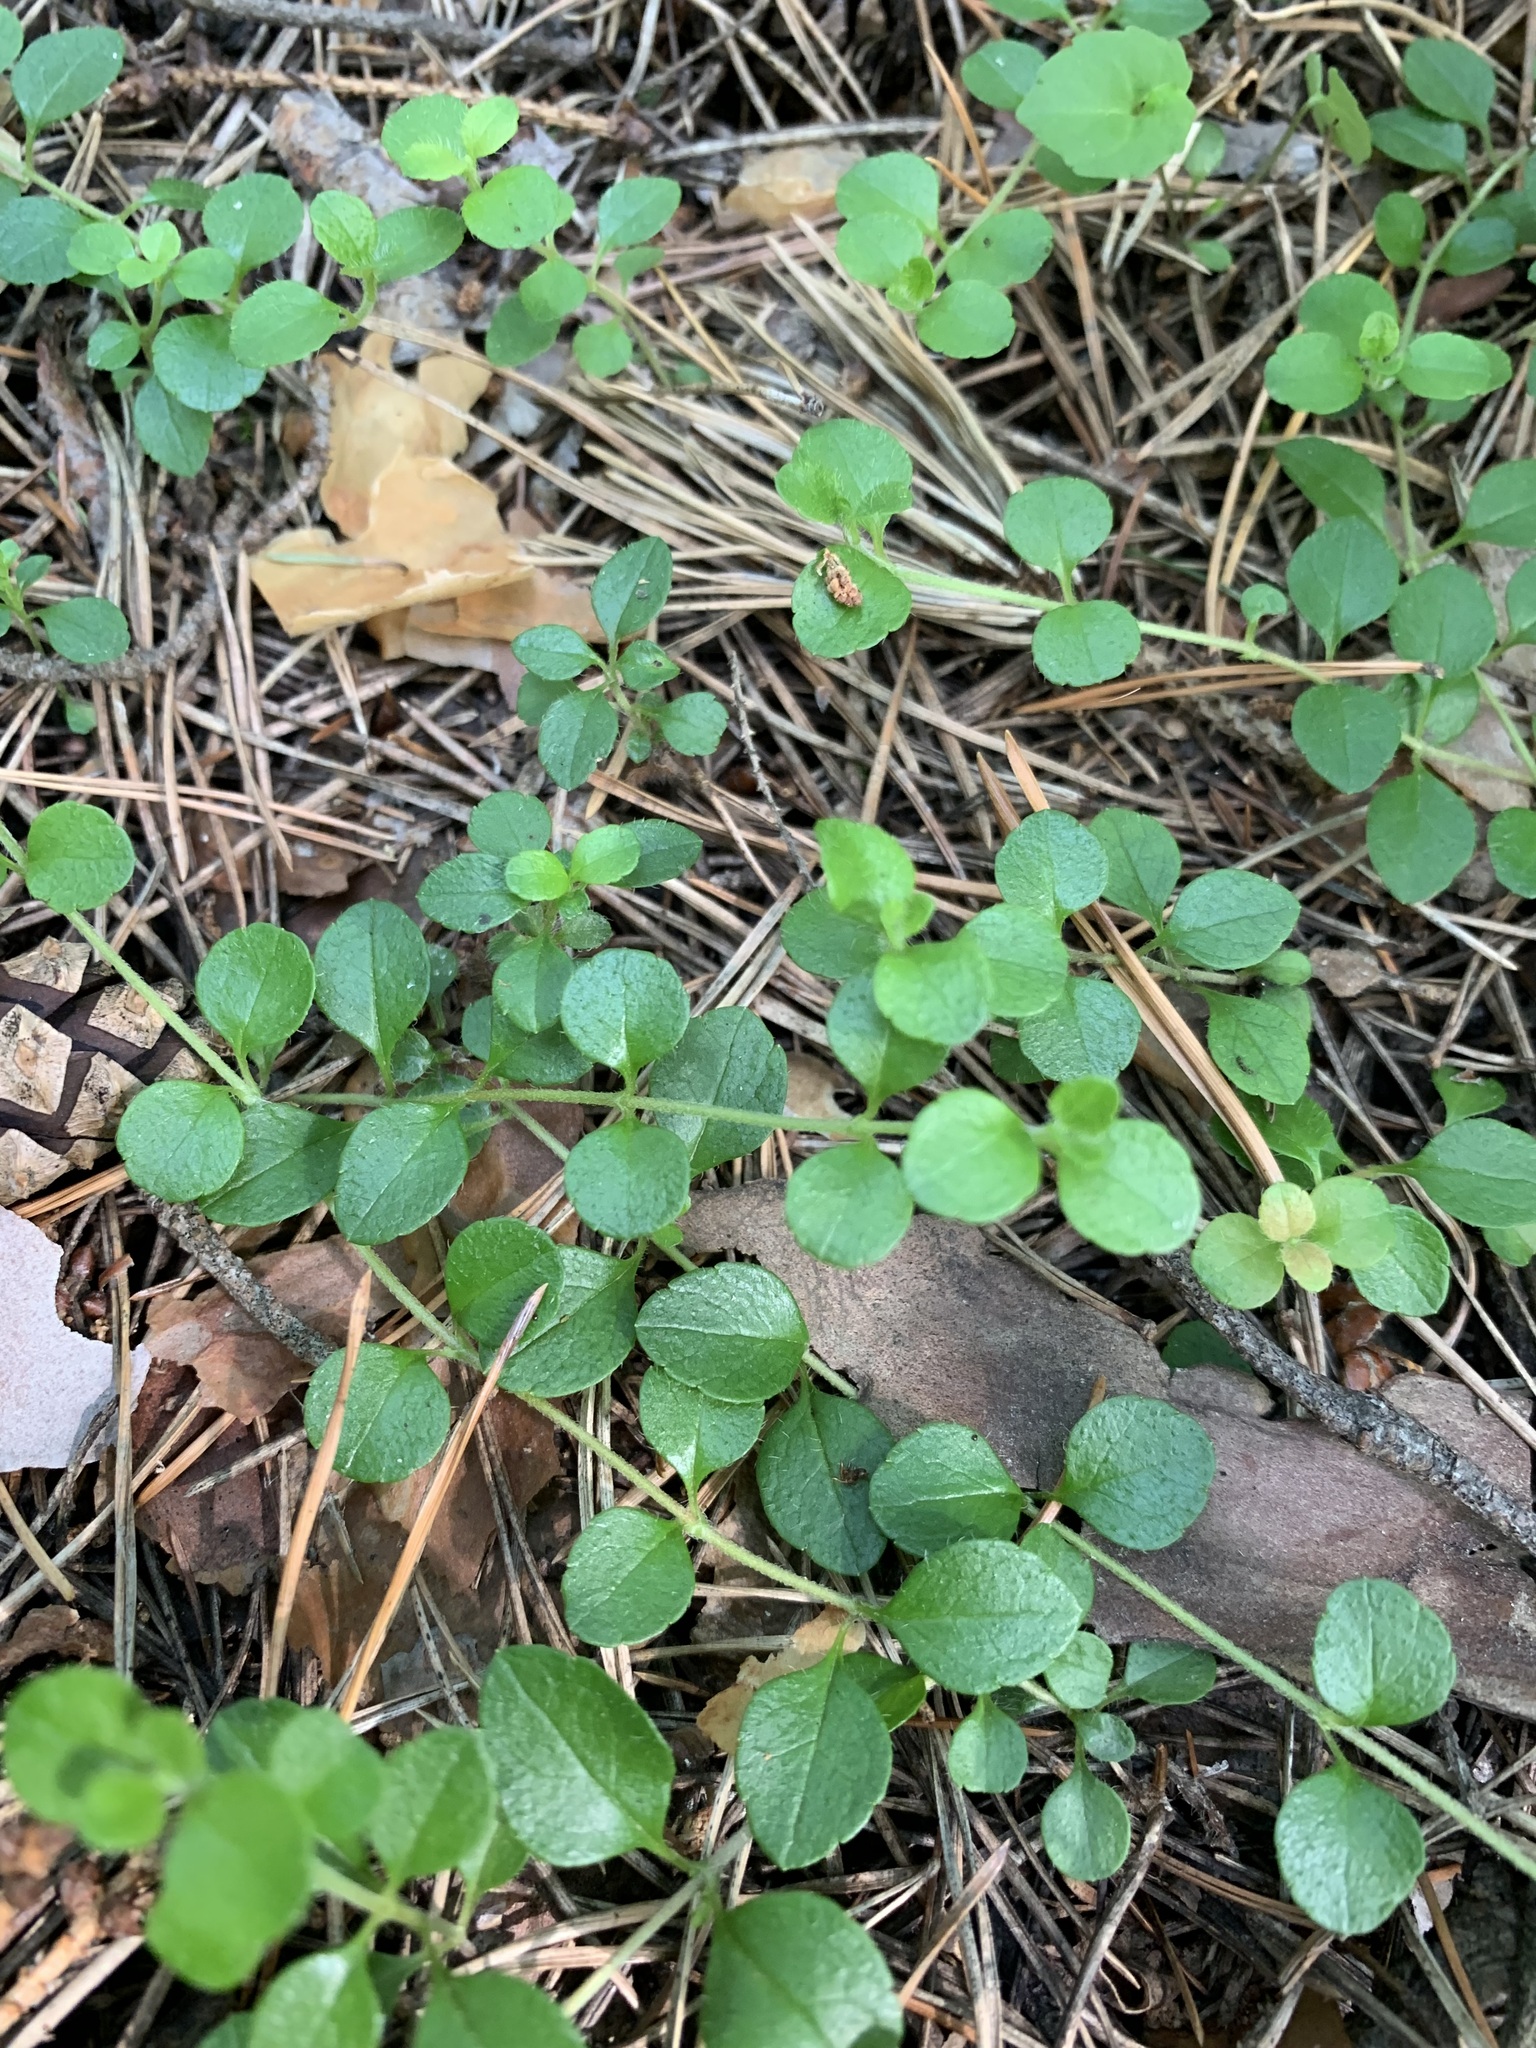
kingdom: Plantae
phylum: Tracheophyta
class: Magnoliopsida
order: Dipsacales
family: Caprifoliaceae
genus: Linnaea
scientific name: Linnaea borealis
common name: Twinflower
